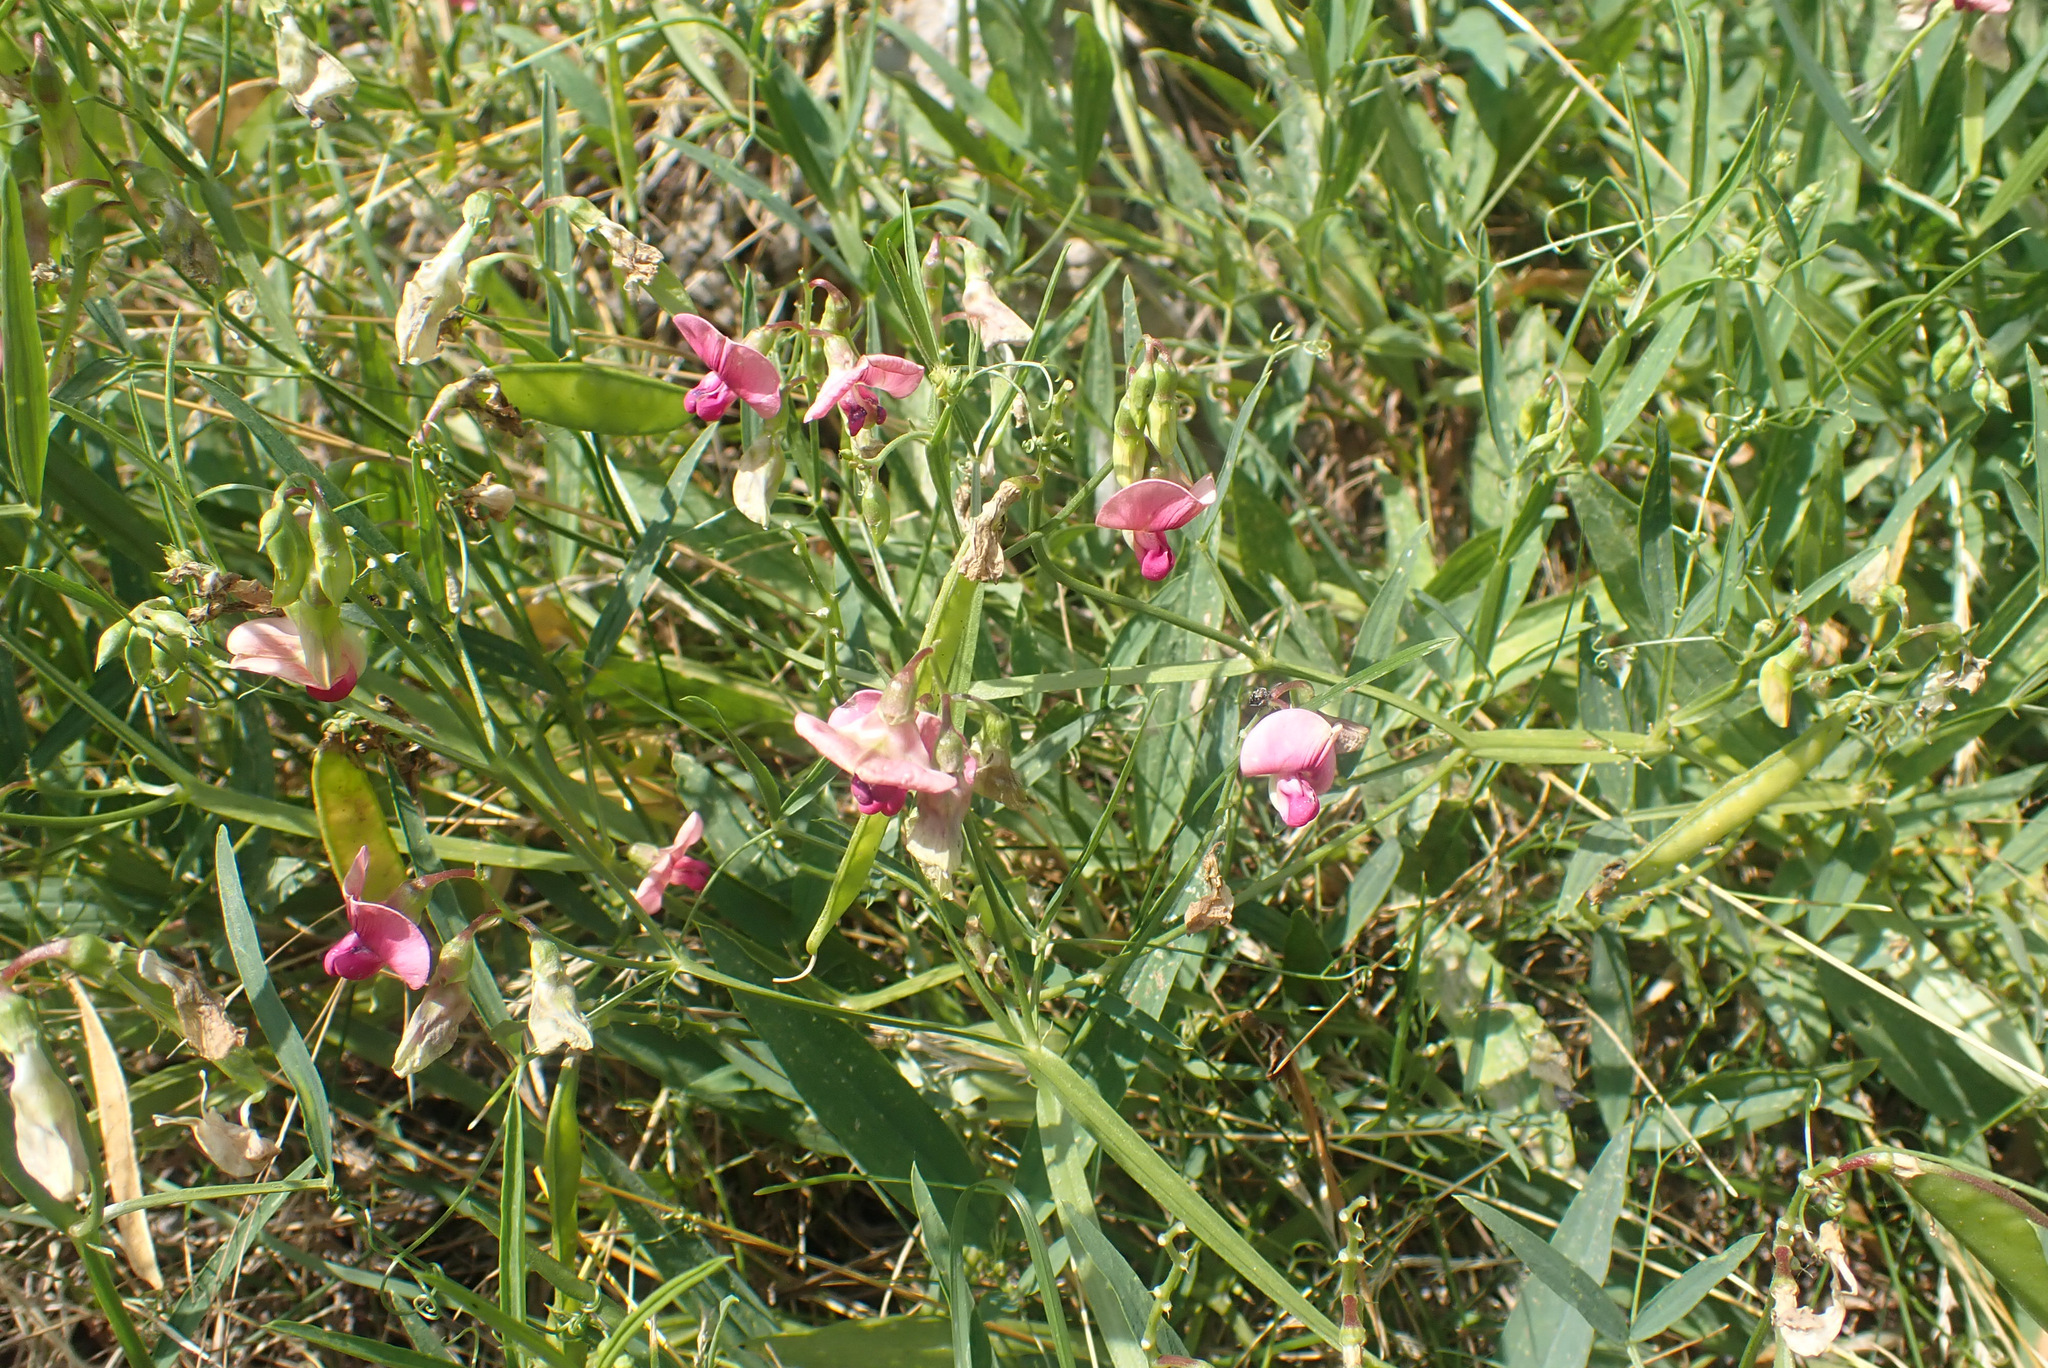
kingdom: Plantae
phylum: Tracheophyta
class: Magnoliopsida
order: Fabales
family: Fabaceae
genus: Lathyrus
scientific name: Lathyrus sylvestris
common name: Flat pea
